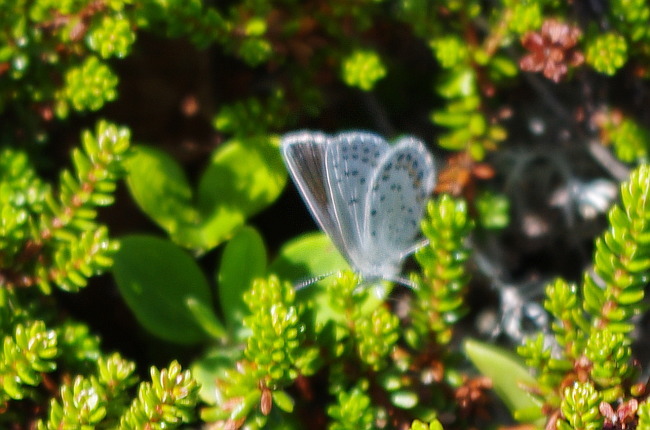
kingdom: Animalia
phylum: Arthropoda
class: Insecta
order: Lepidoptera
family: Lycaenidae
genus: Lycaeides
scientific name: Lycaeides idas
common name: Northern blue
